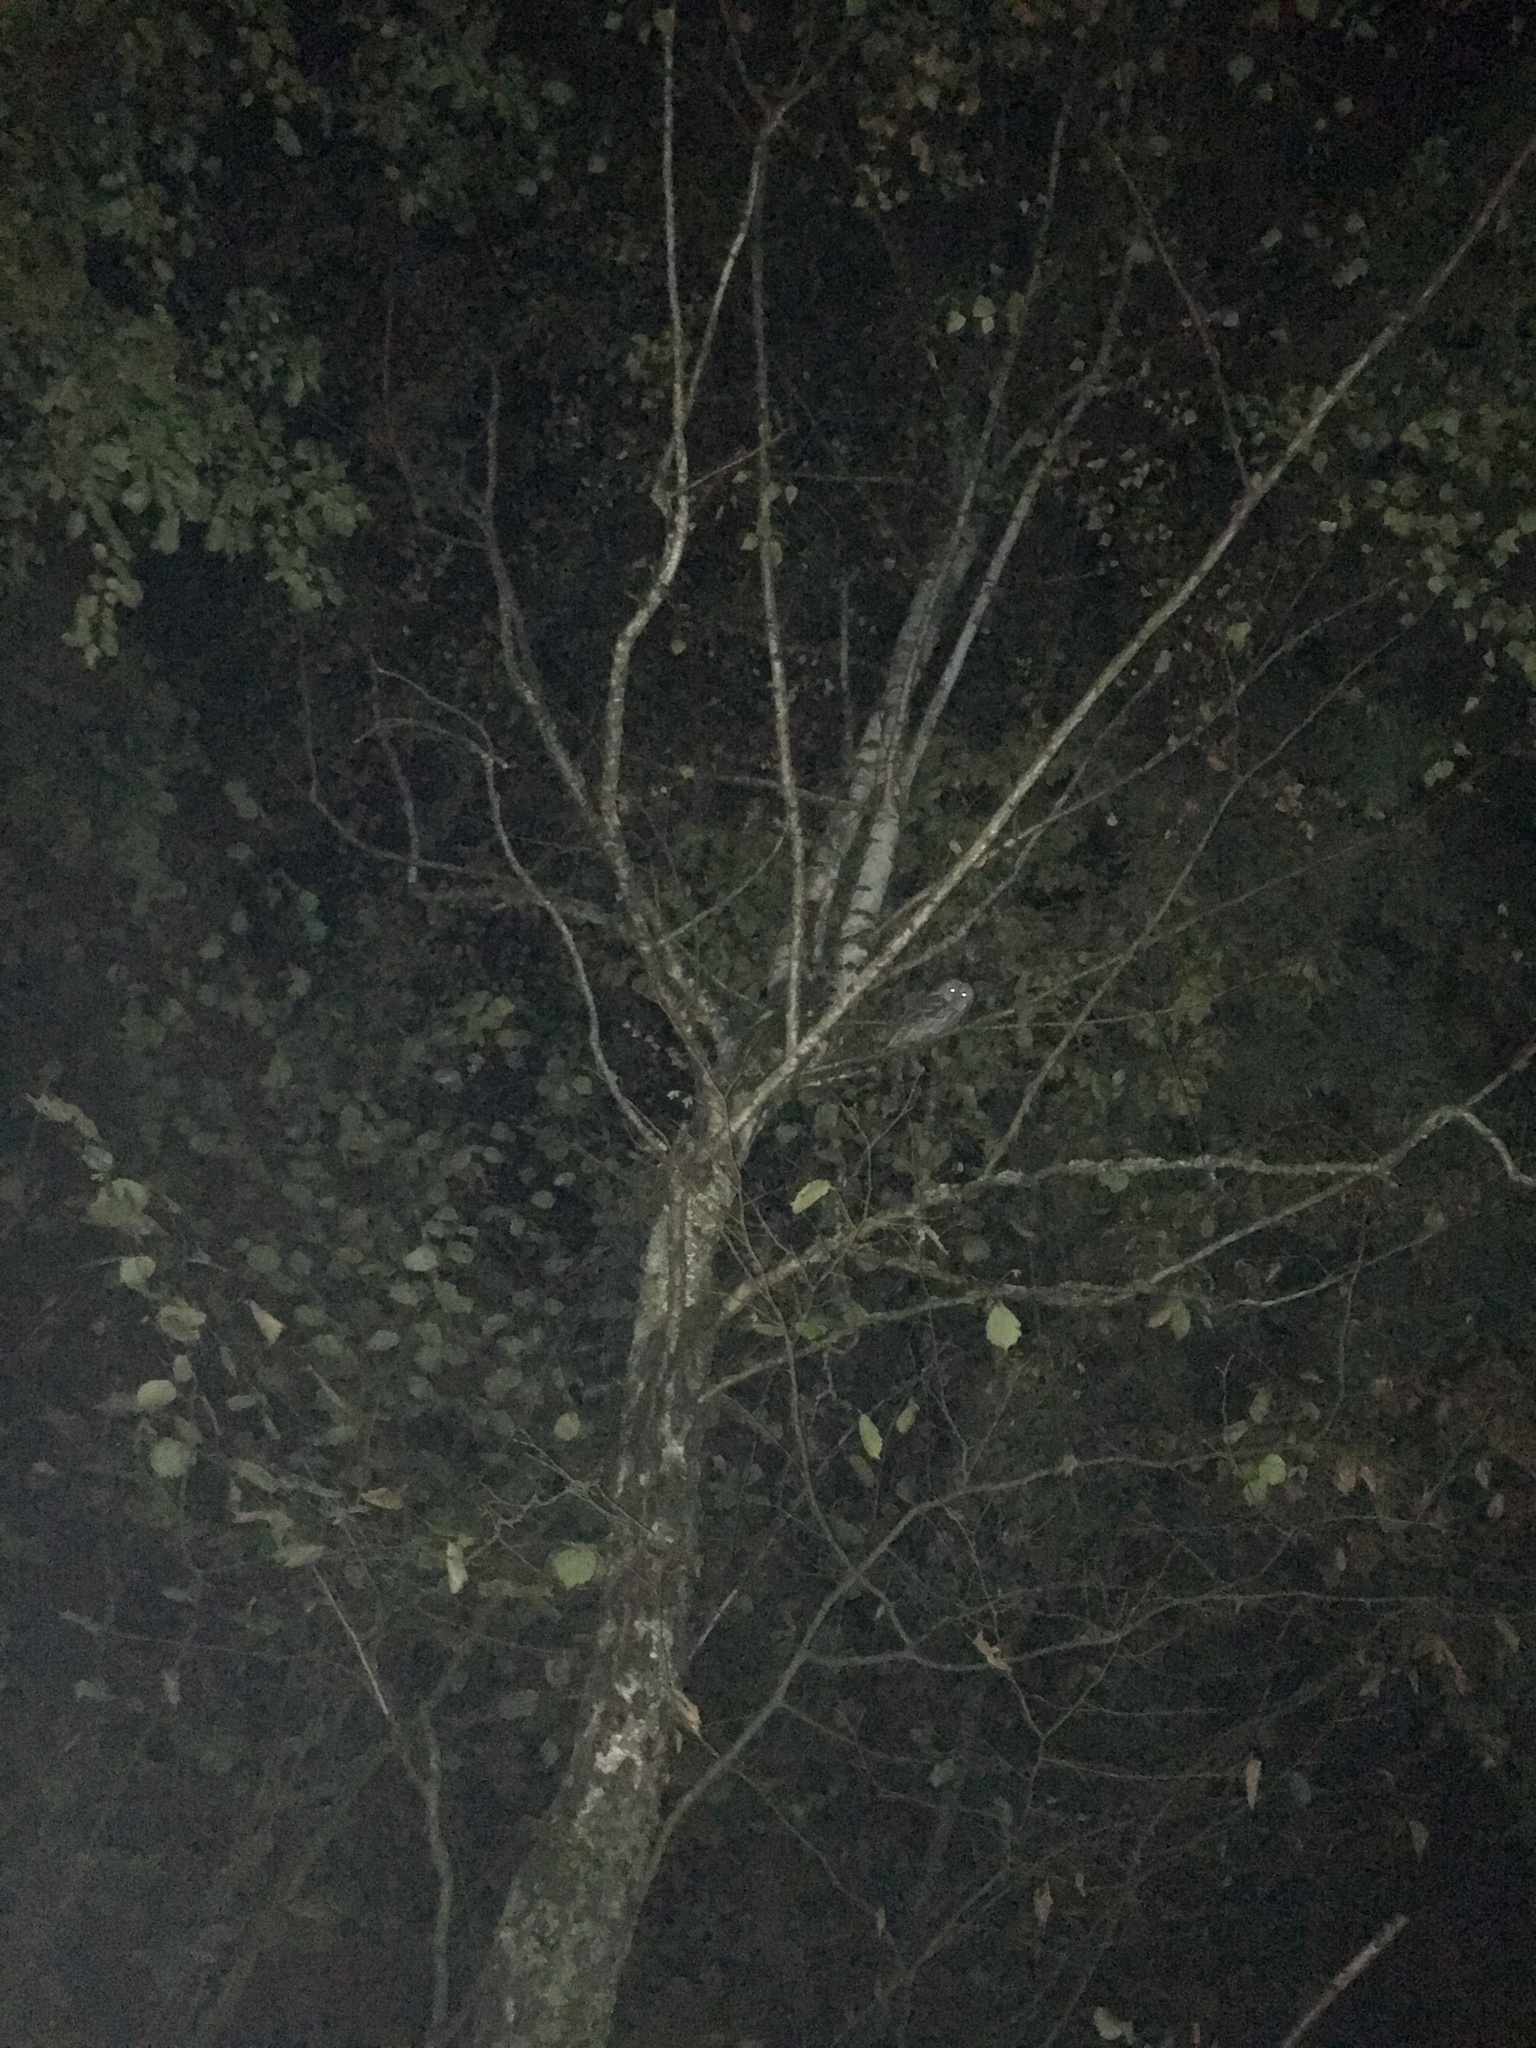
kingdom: Animalia
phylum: Chordata
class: Aves
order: Strigiformes
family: Strigidae
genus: Strix
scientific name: Strix aluco
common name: Tawny owl
